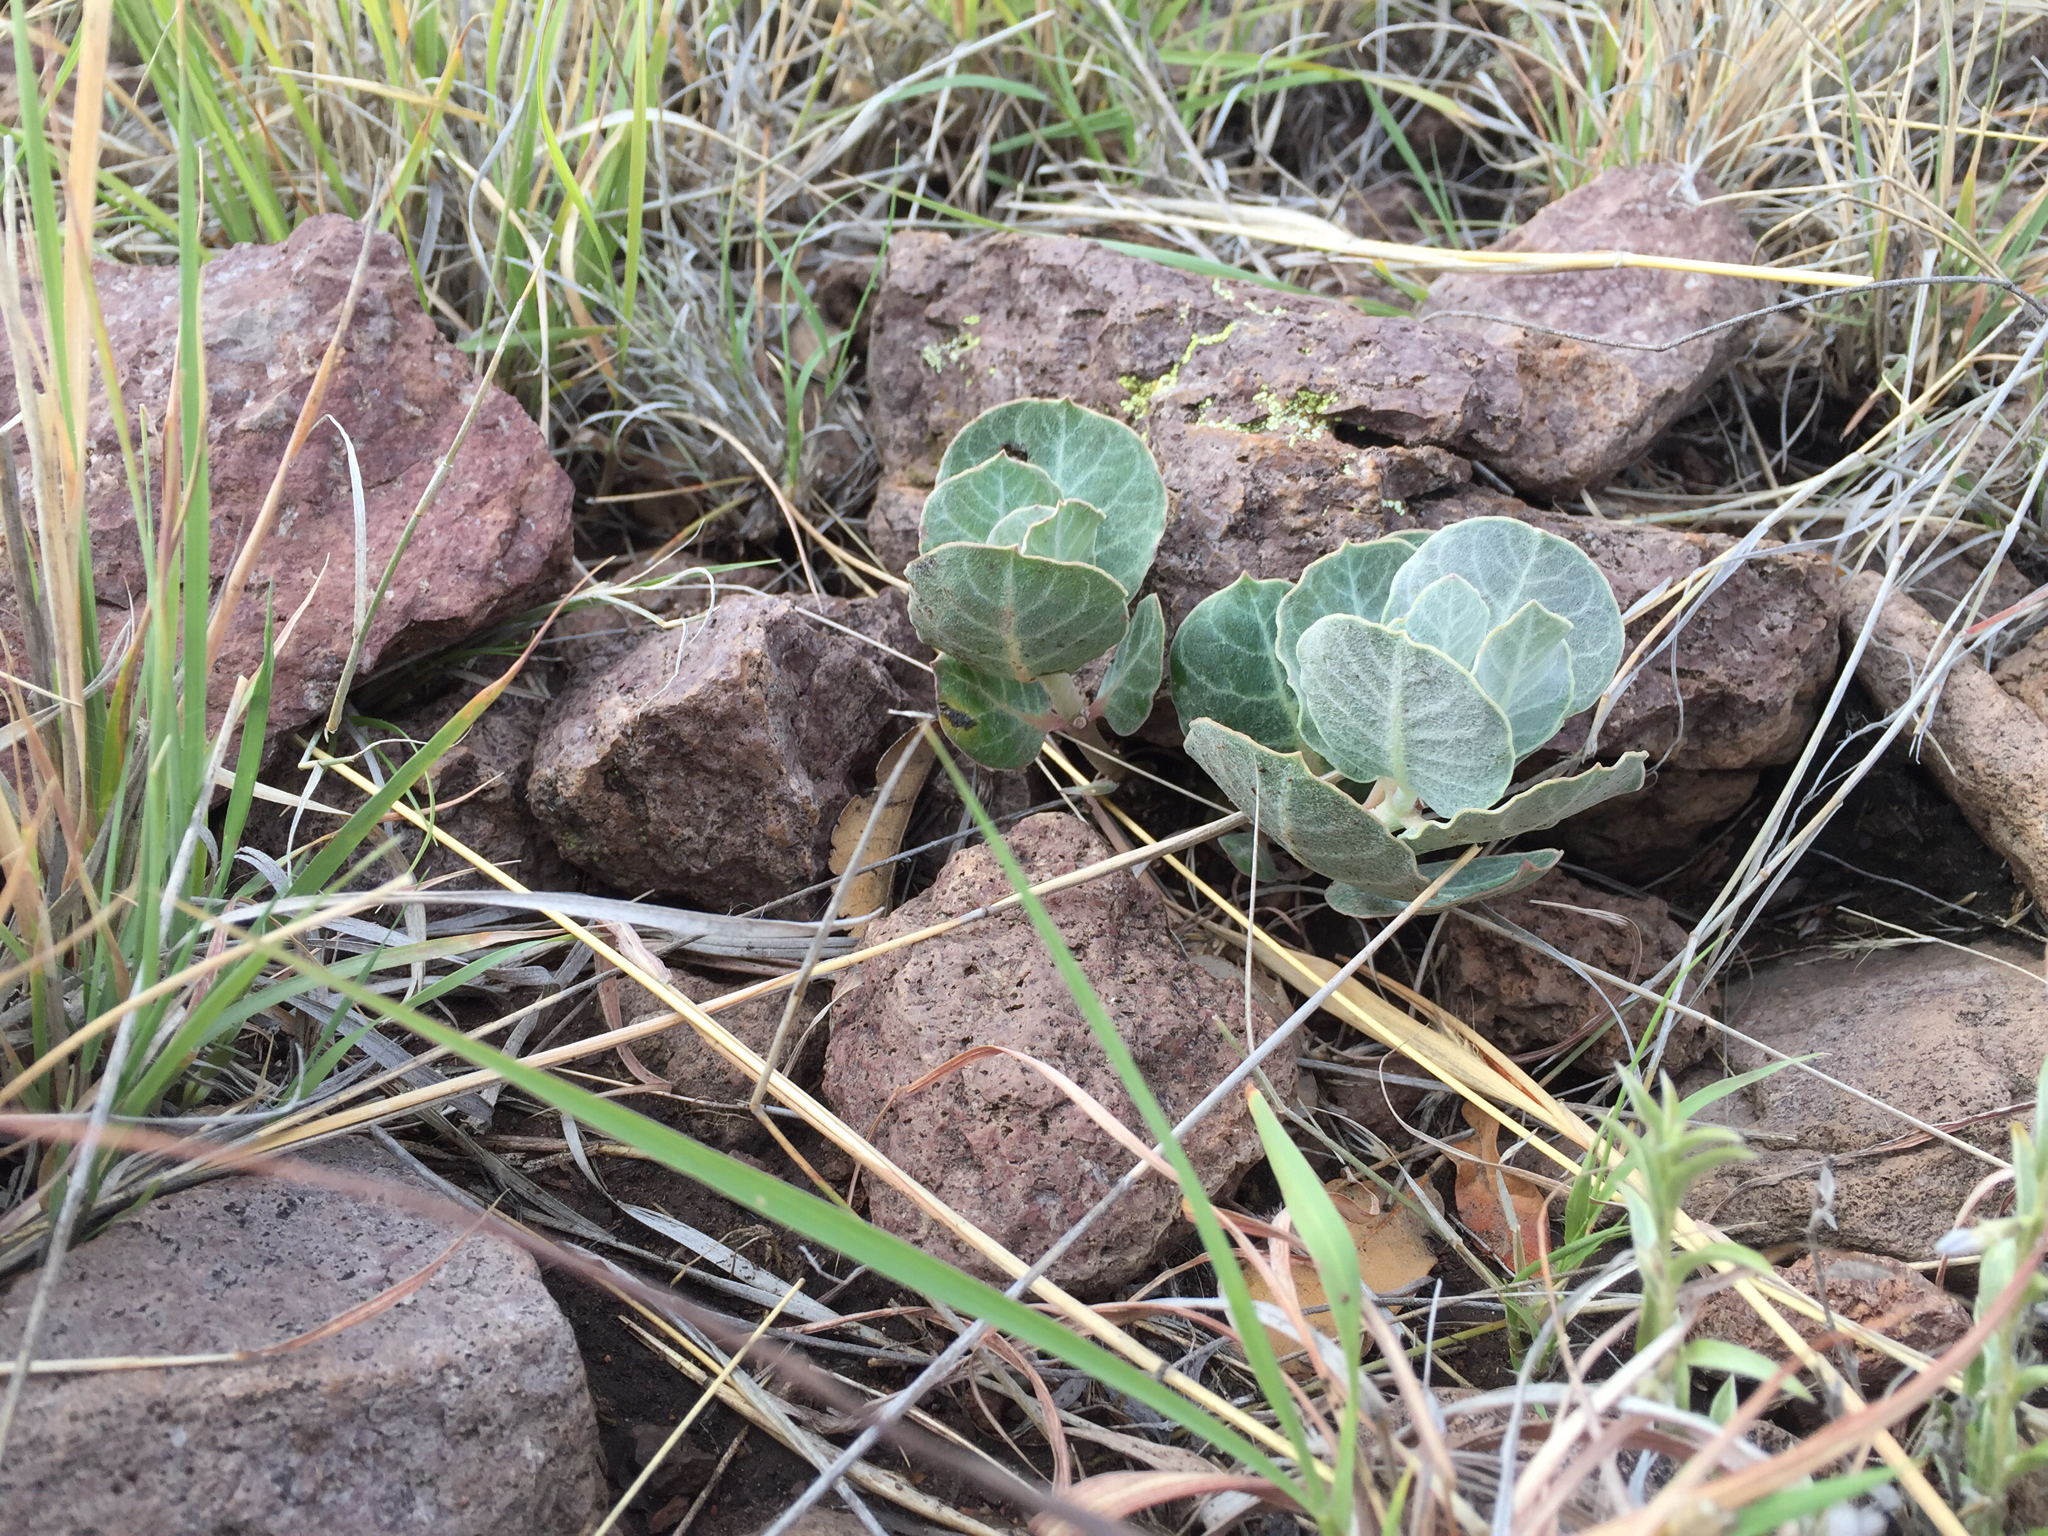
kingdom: Plantae
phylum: Tracheophyta
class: Magnoliopsida
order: Gentianales
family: Apocynaceae
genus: Asclepias
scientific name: Asclepias nummularia
